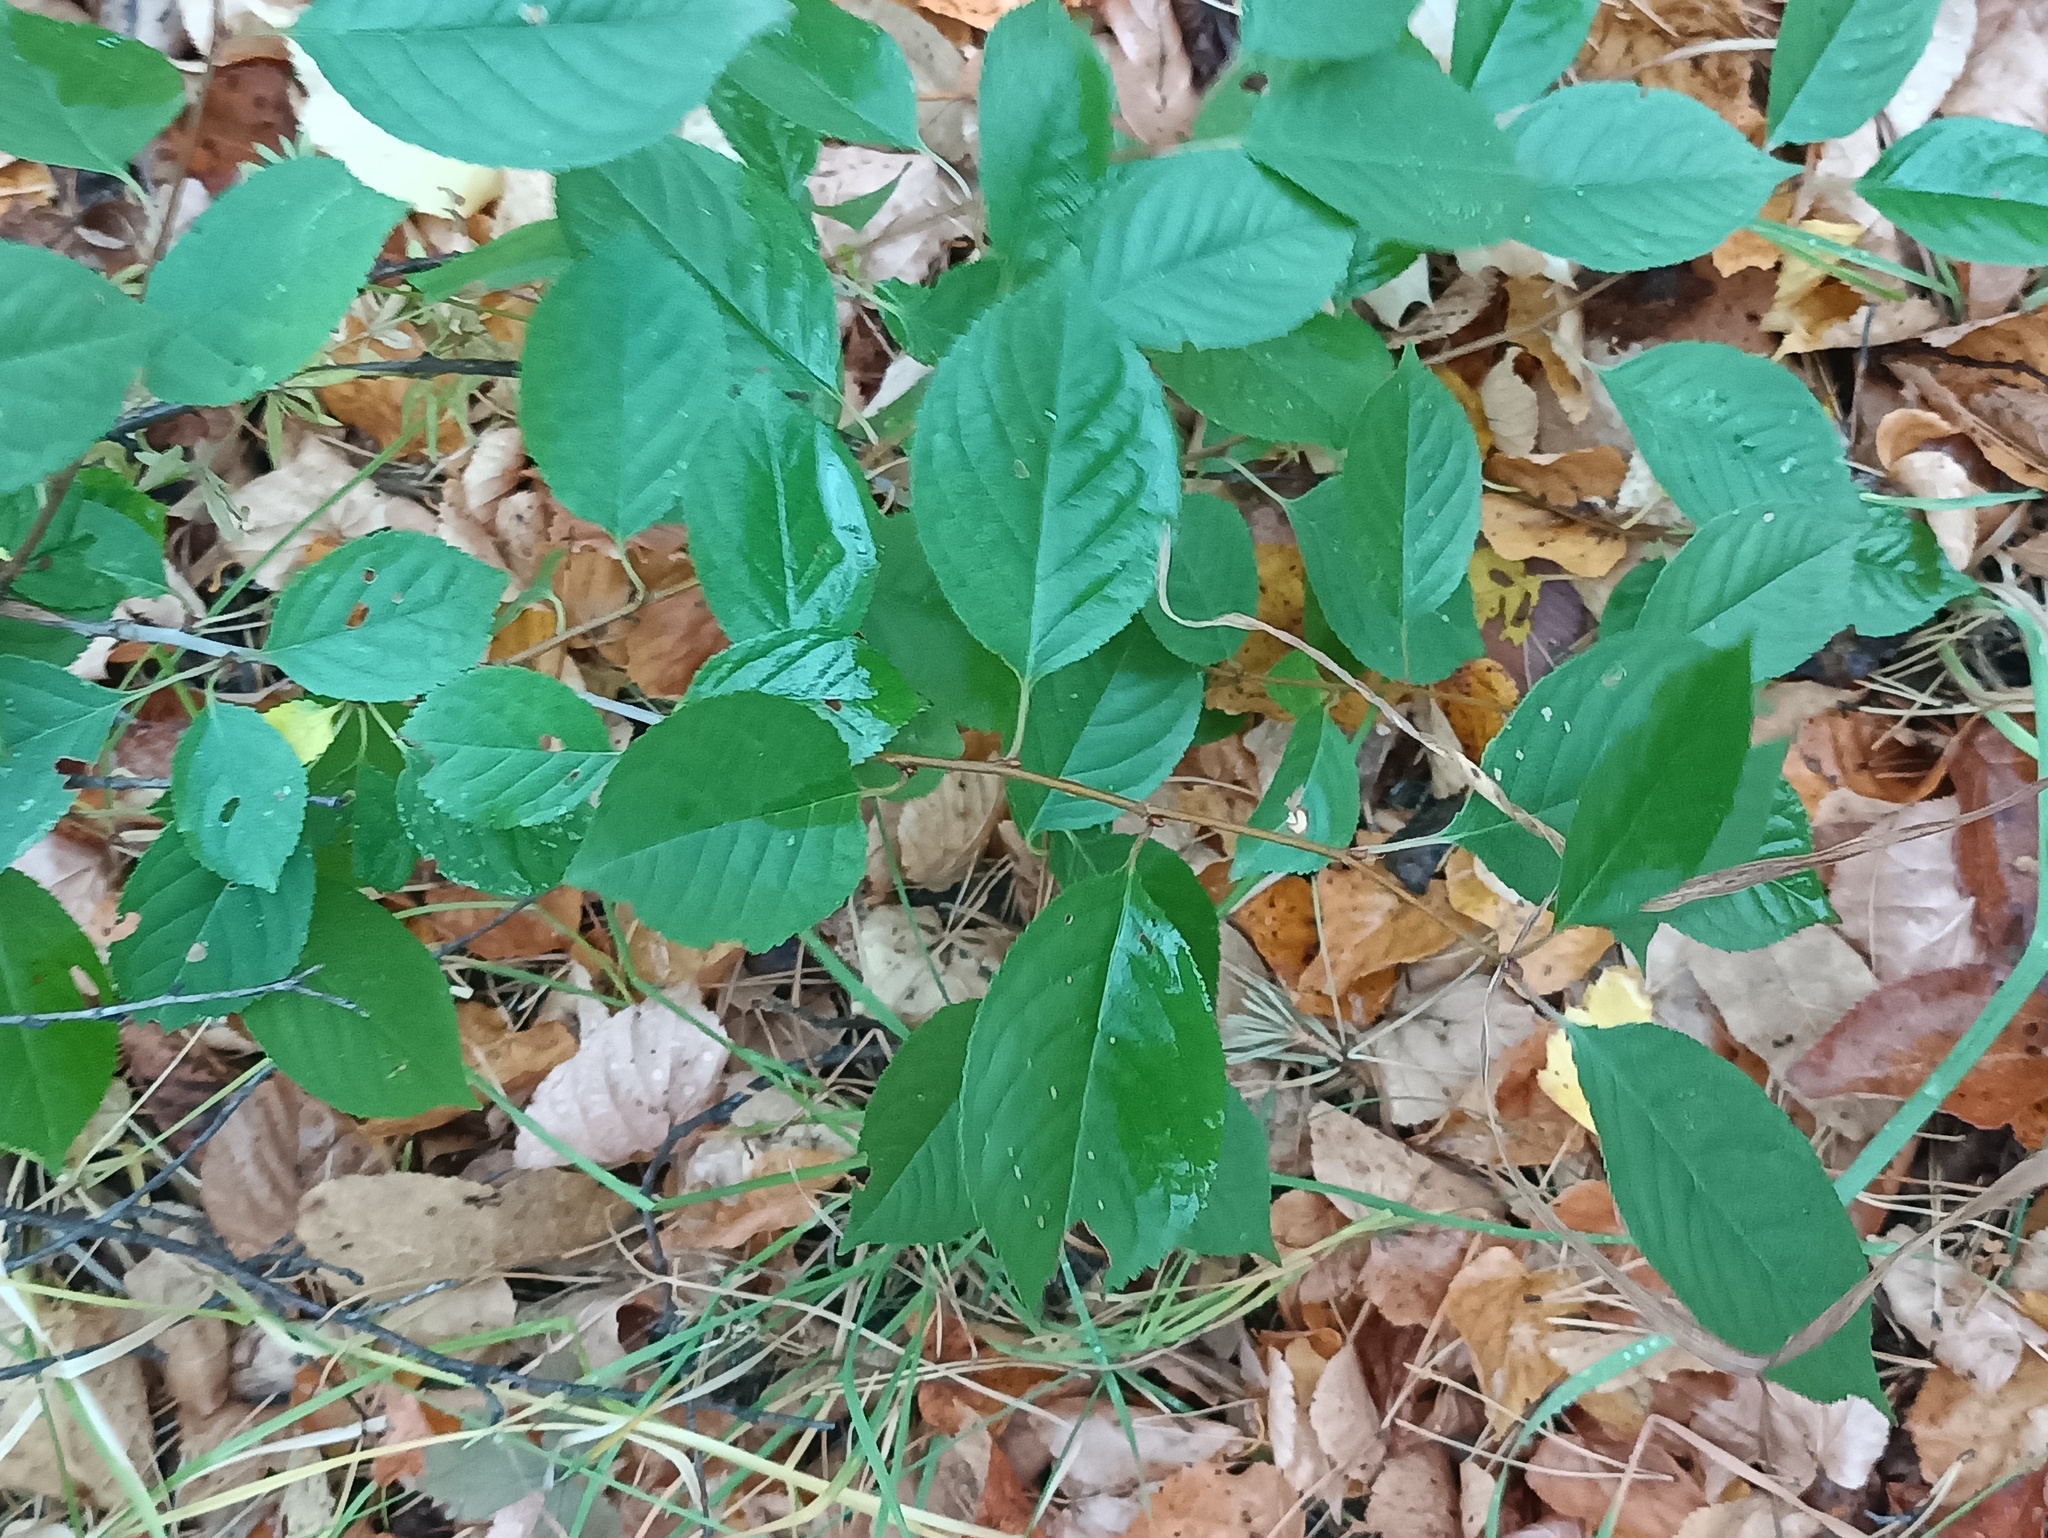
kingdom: Plantae
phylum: Tracheophyta
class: Magnoliopsida
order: Rosales
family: Rosaceae
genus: Prunus
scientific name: Prunus cerasus
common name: Morello cherry
